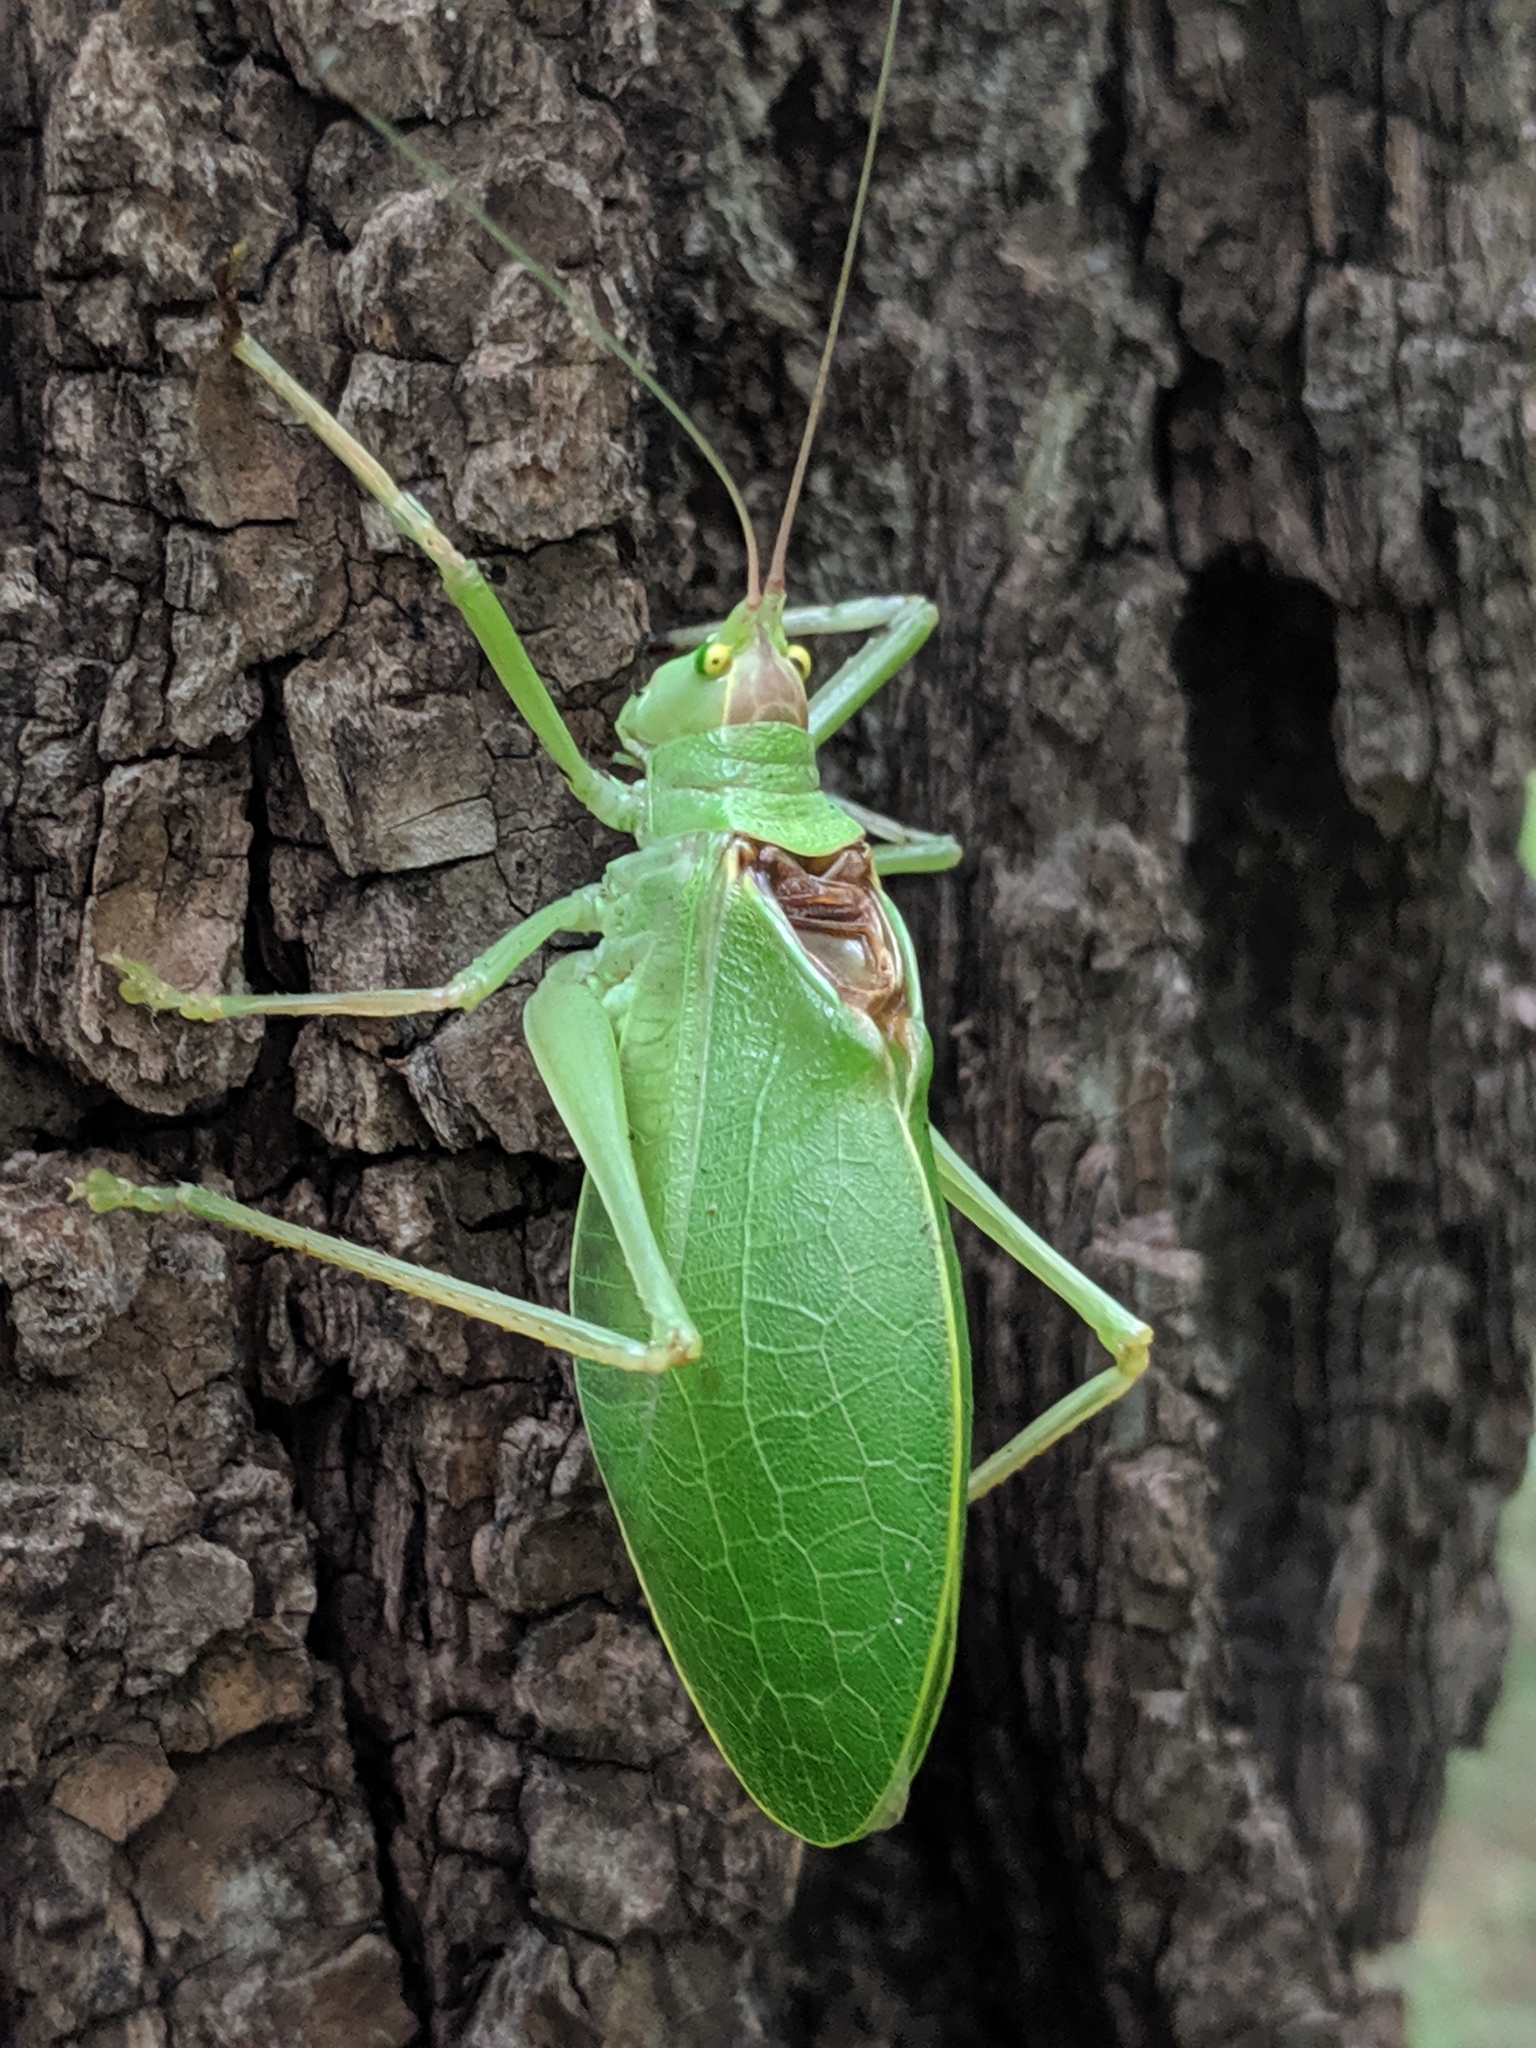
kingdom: Animalia
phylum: Arthropoda
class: Insecta
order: Orthoptera
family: Tettigoniidae
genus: Pterophylla
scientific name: Pterophylla camellifolia
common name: Common true katydid
